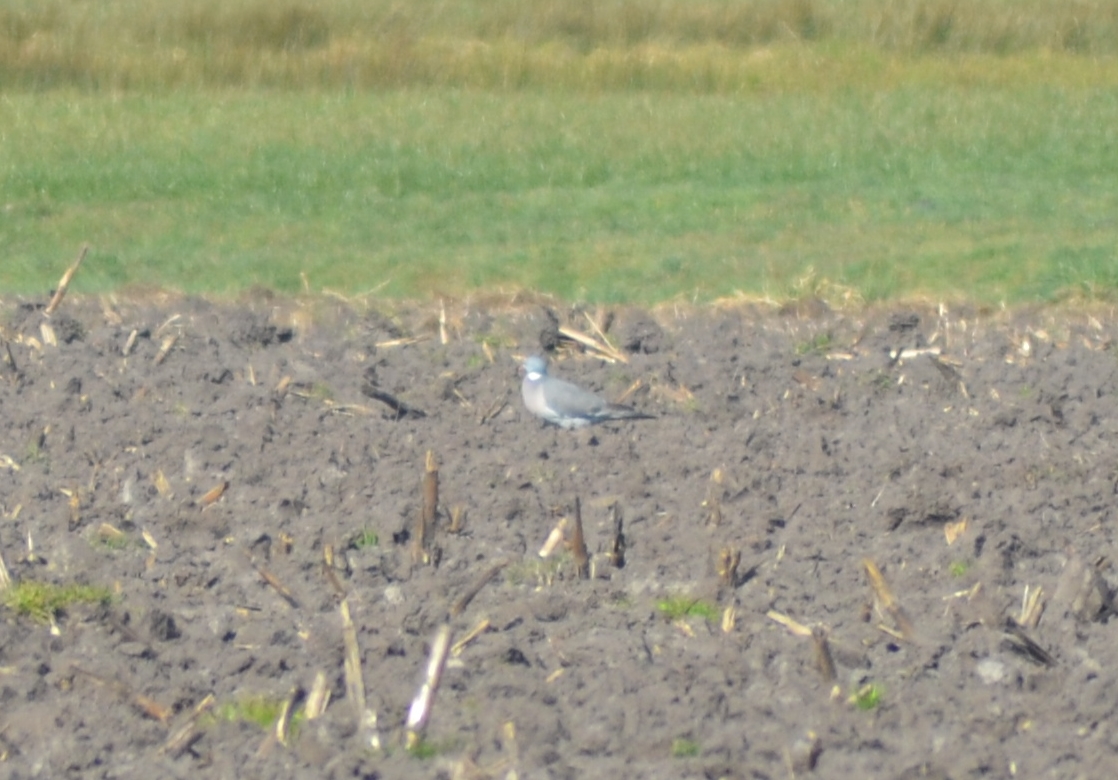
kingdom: Animalia
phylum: Chordata
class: Aves
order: Columbiformes
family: Columbidae
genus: Columba
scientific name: Columba palumbus
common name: Common wood pigeon
